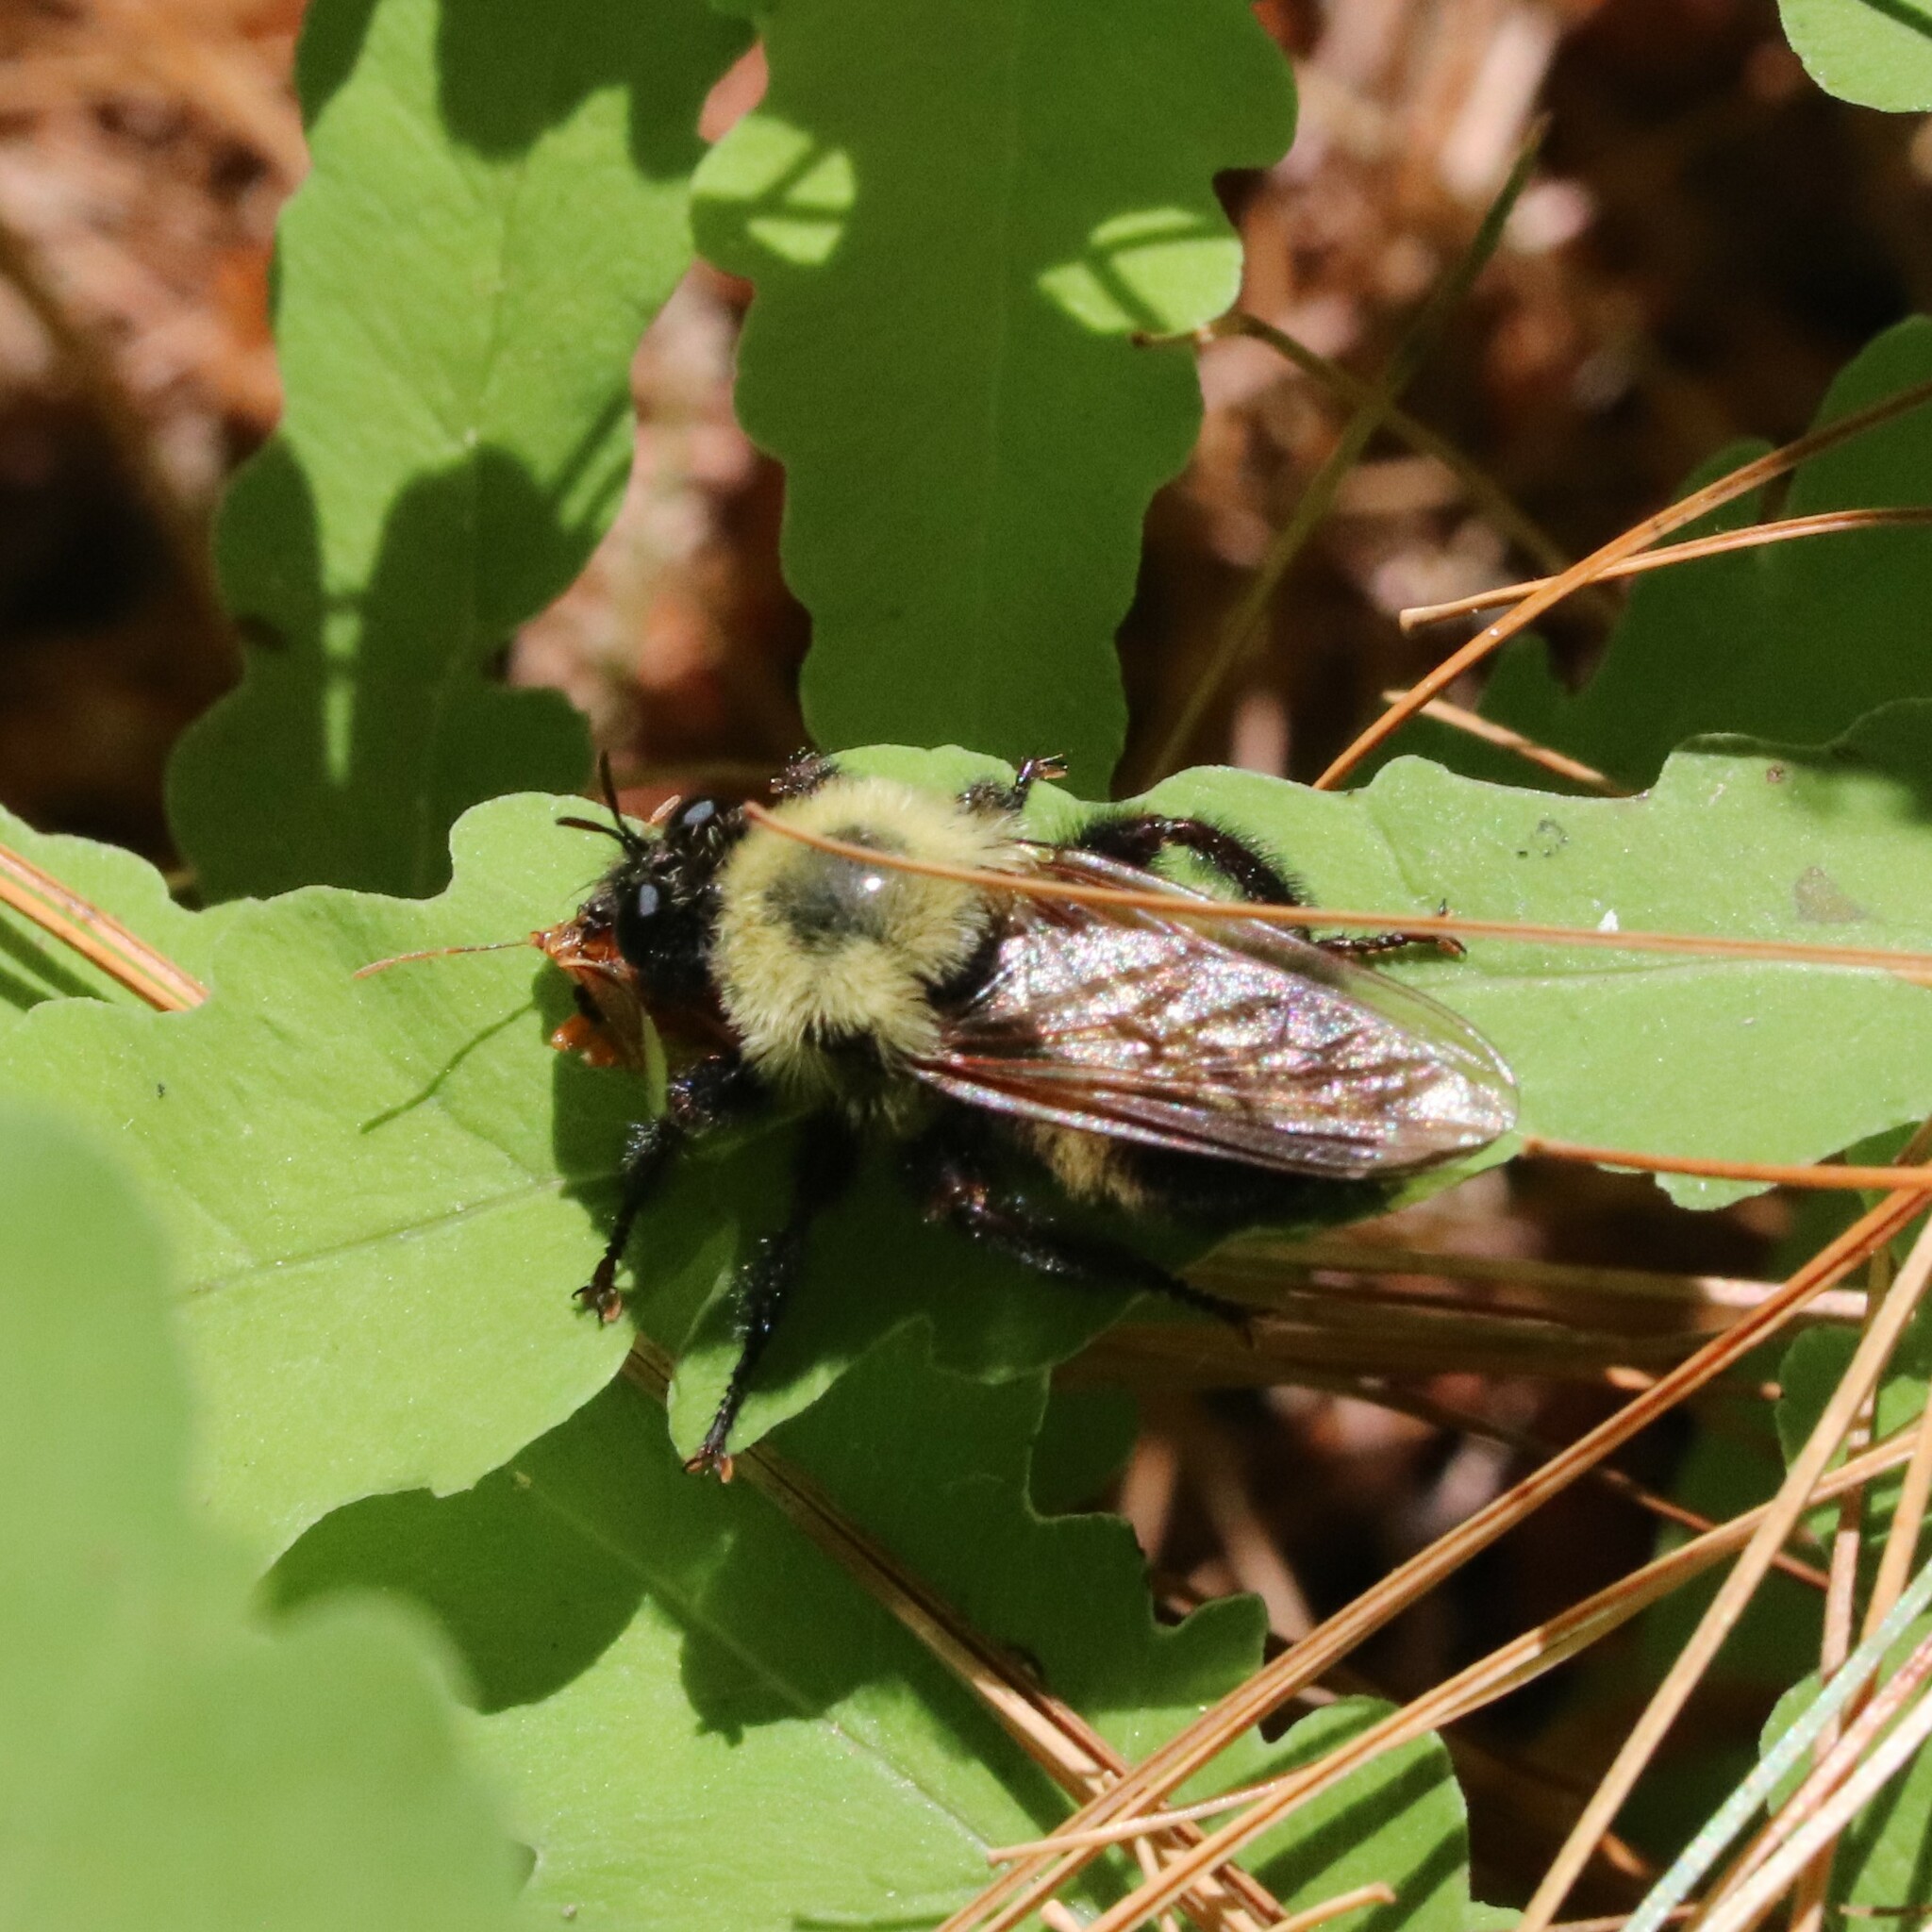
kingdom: Animalia
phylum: Arthropoda
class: Insecta
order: Diptera
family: Asilidae
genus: Laphria
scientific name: Laphria thoracica
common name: Bumble bee mimic robber fly
